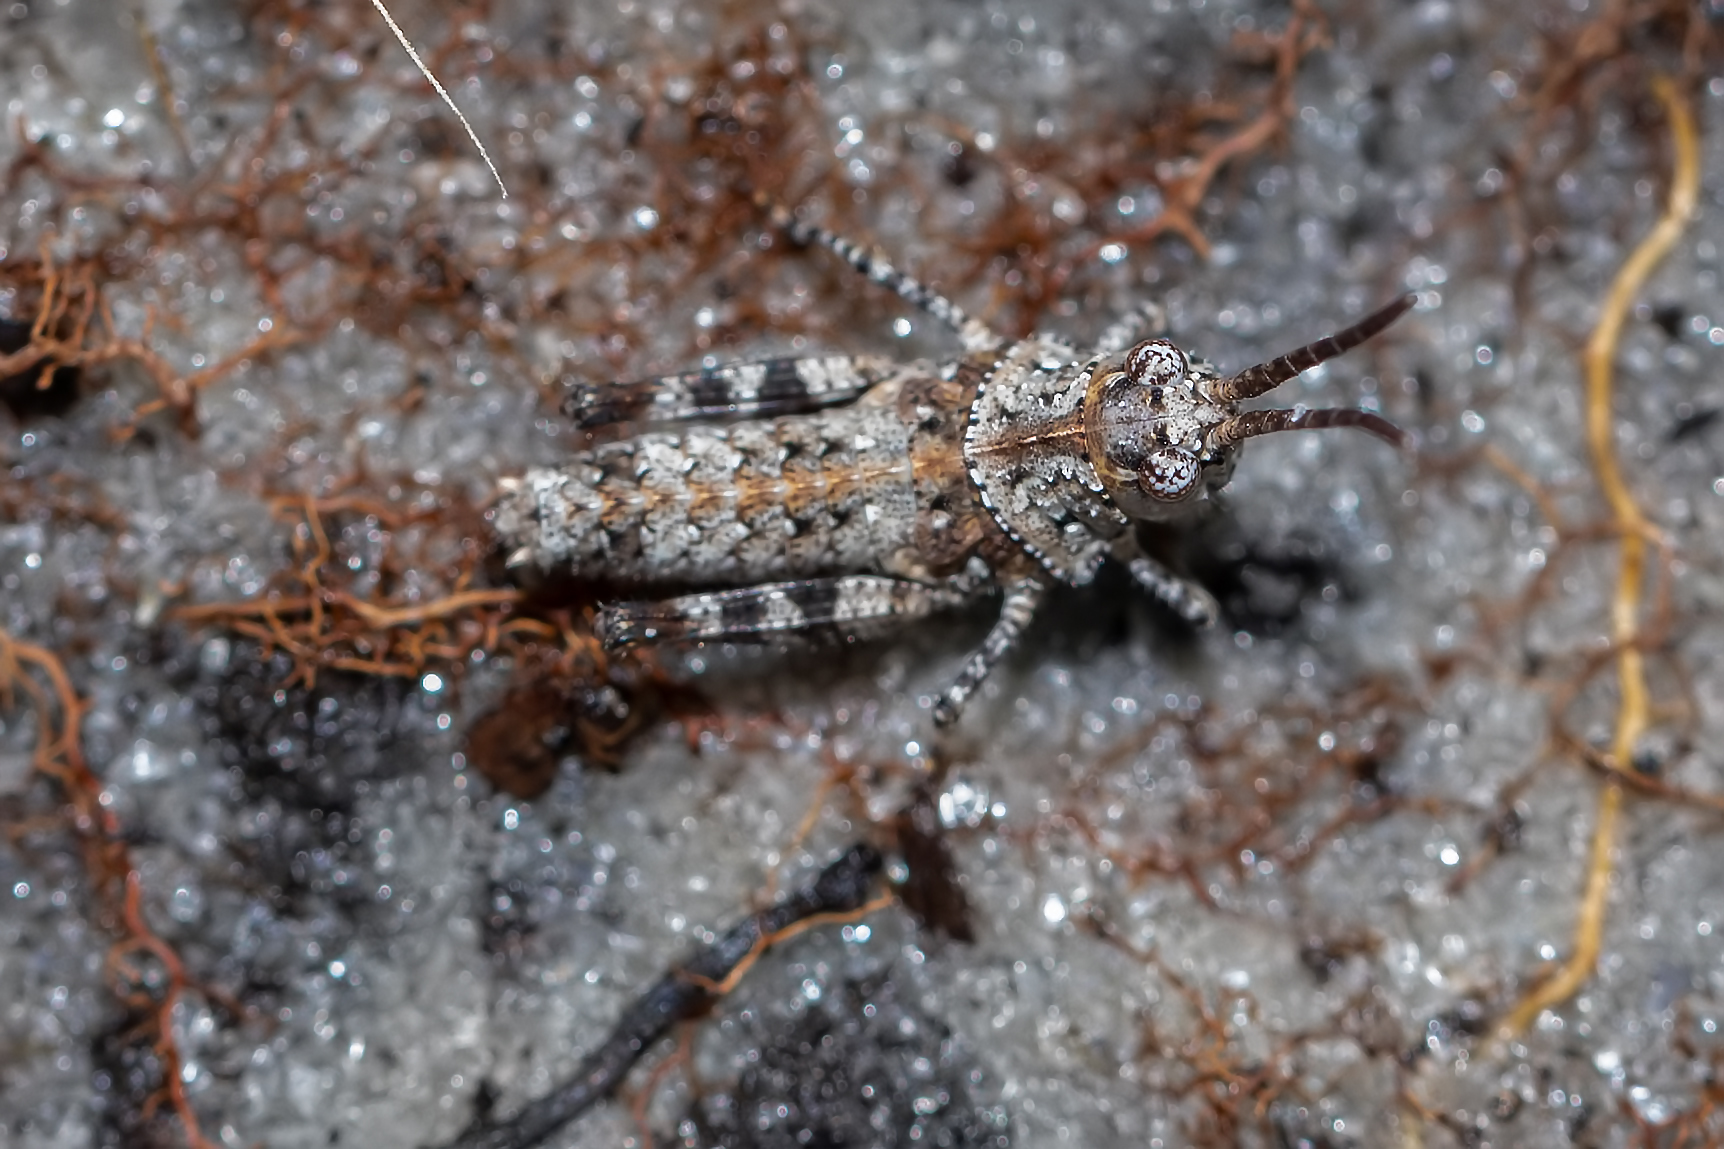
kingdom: Animalia
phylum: Arthropoda
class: Insecta
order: Orthoptera
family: Acrididae
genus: Psinidia
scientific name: Psinidia fenestralis
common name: Long-horned locust
